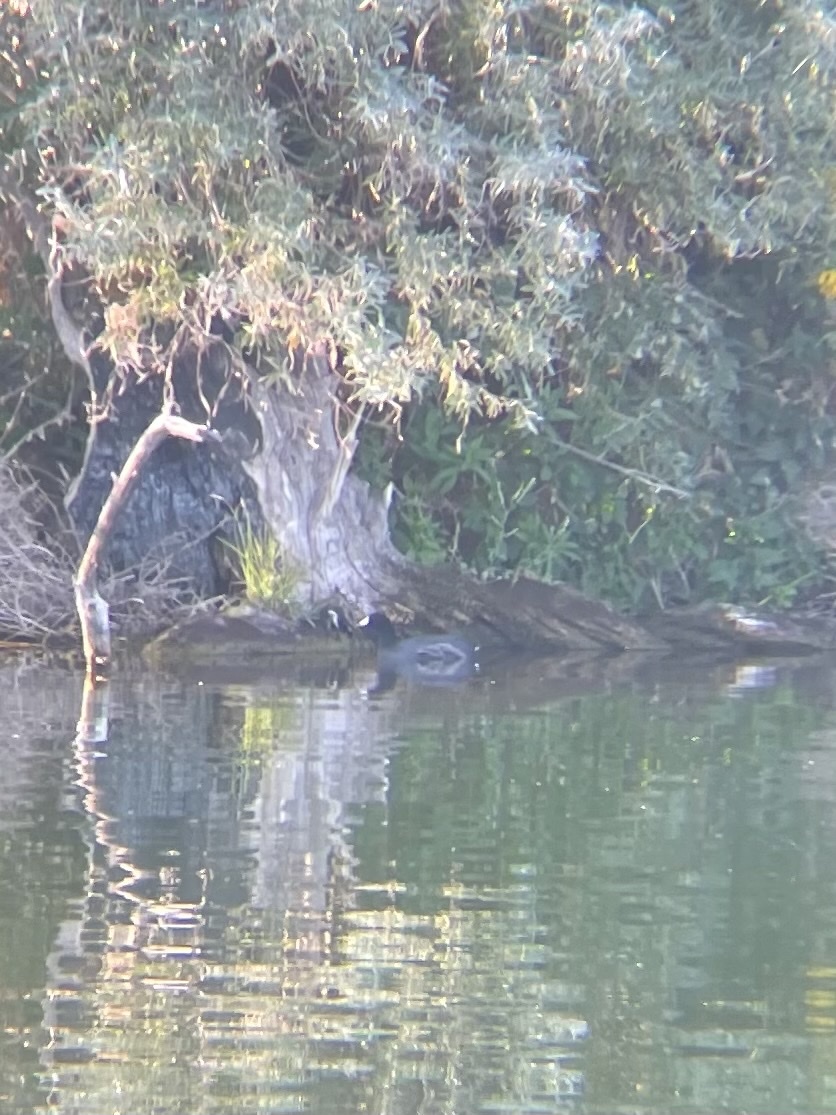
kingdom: Animalia
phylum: Chordata
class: Aves
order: Gruiformes
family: Rallidae
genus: Fulica
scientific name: Fulica americana
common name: American coot
